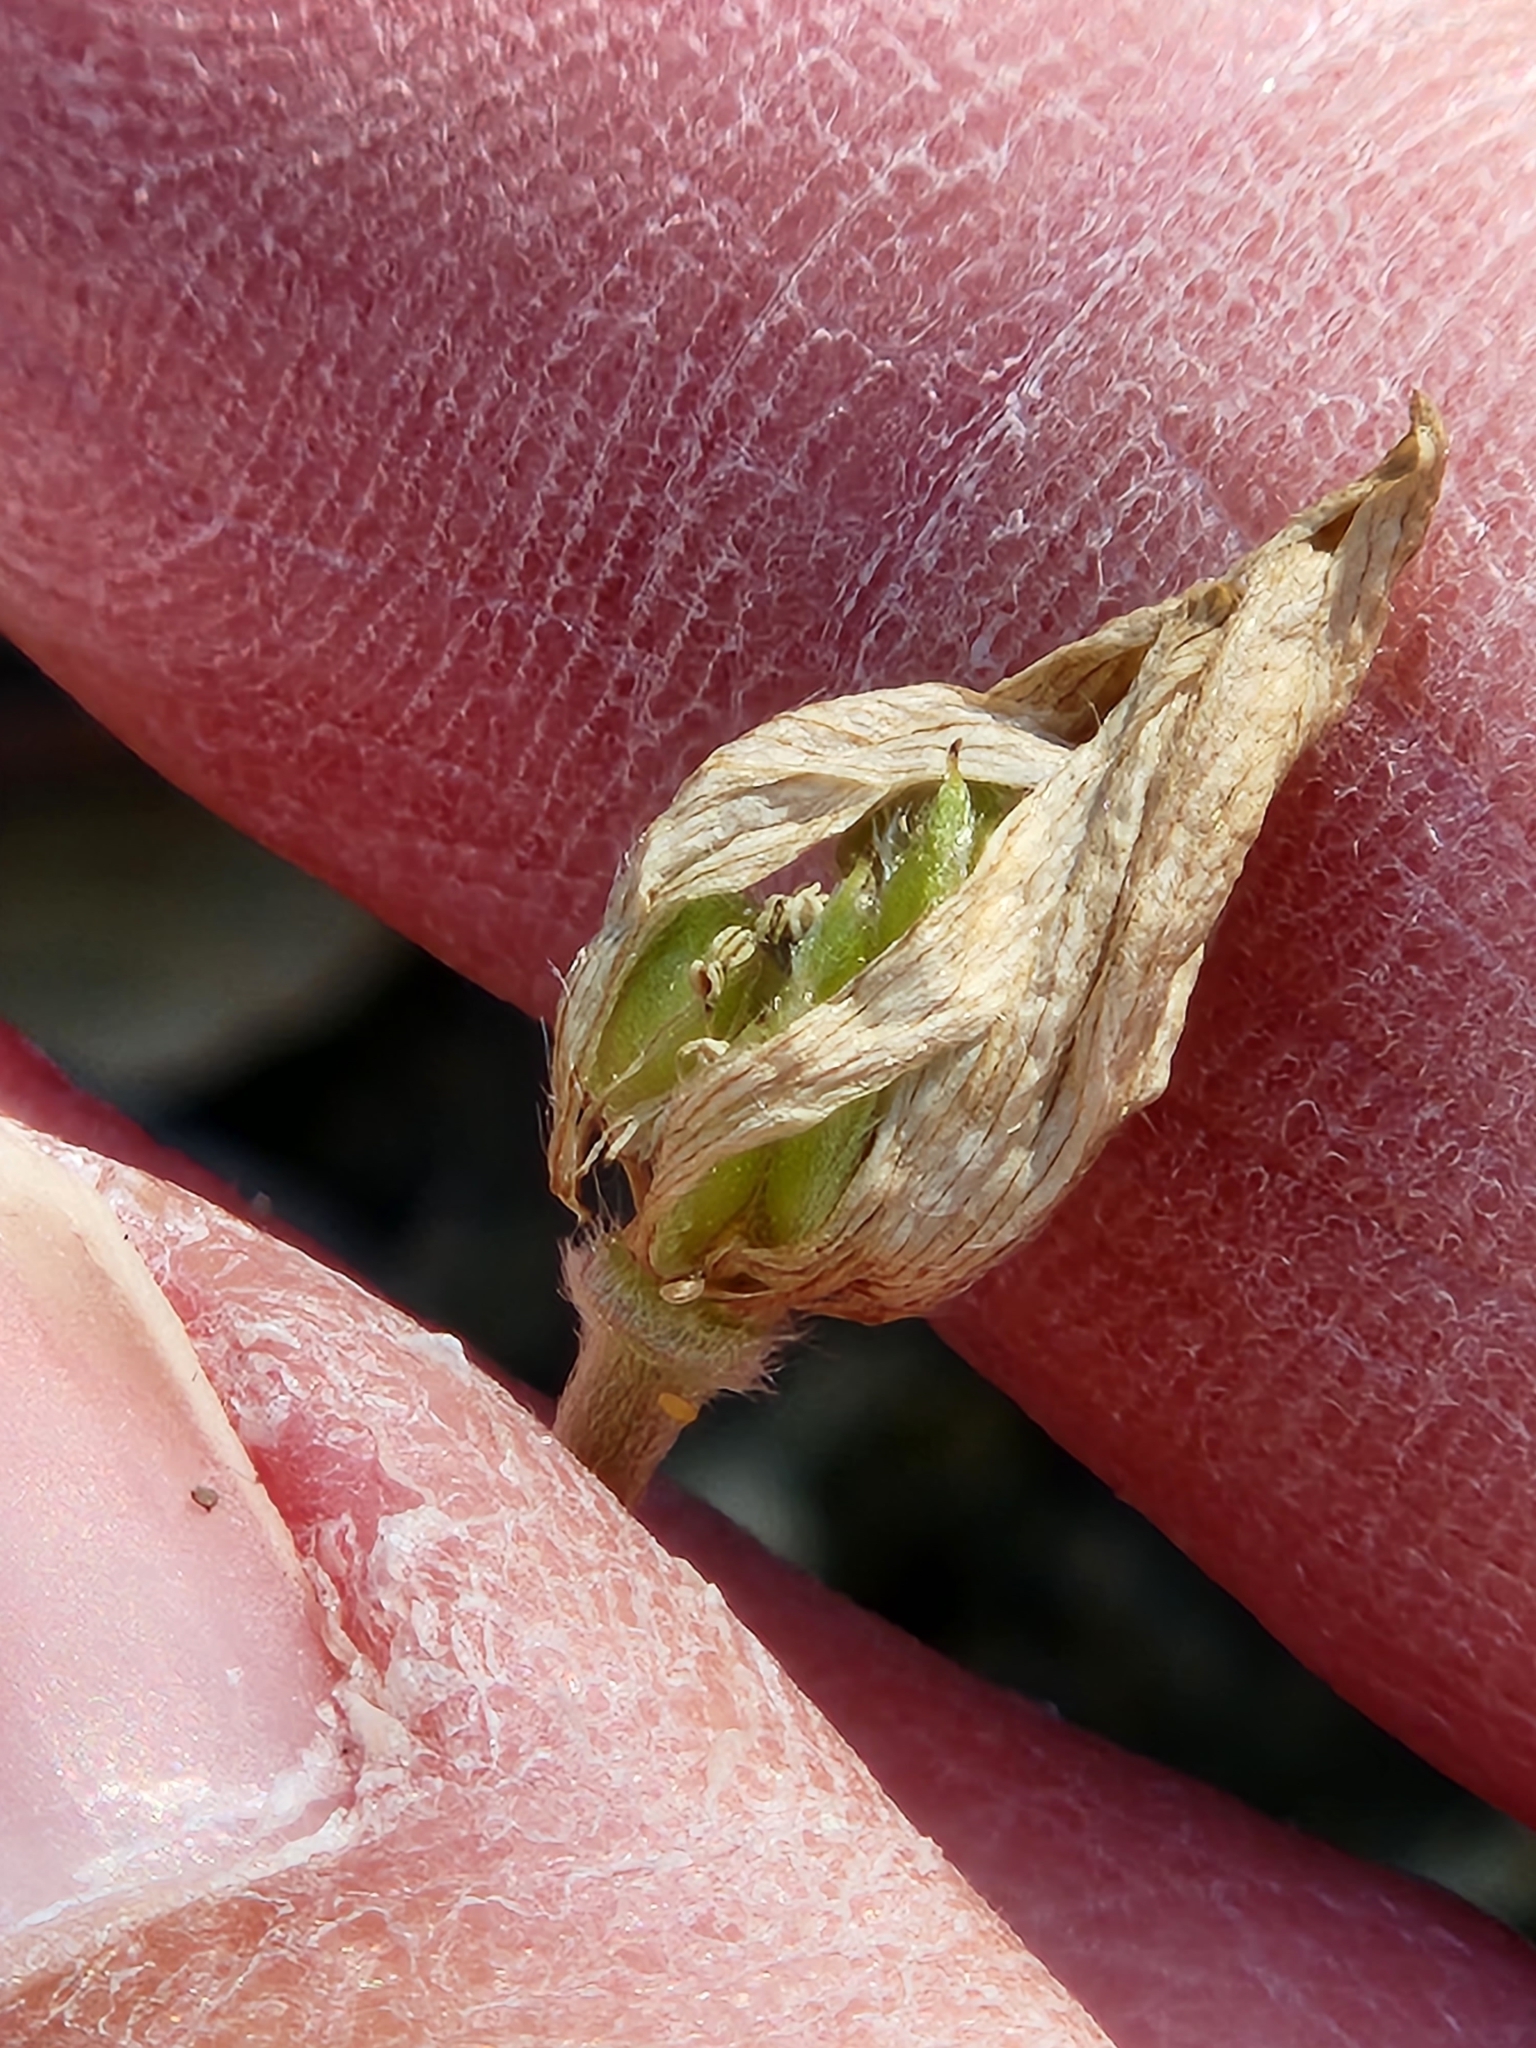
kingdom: Plantae
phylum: Tracheophyta
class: Magnoliopsida
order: Ranunculales
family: Ranunculaceae
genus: Anemone
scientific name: Anemone edwardsiana
